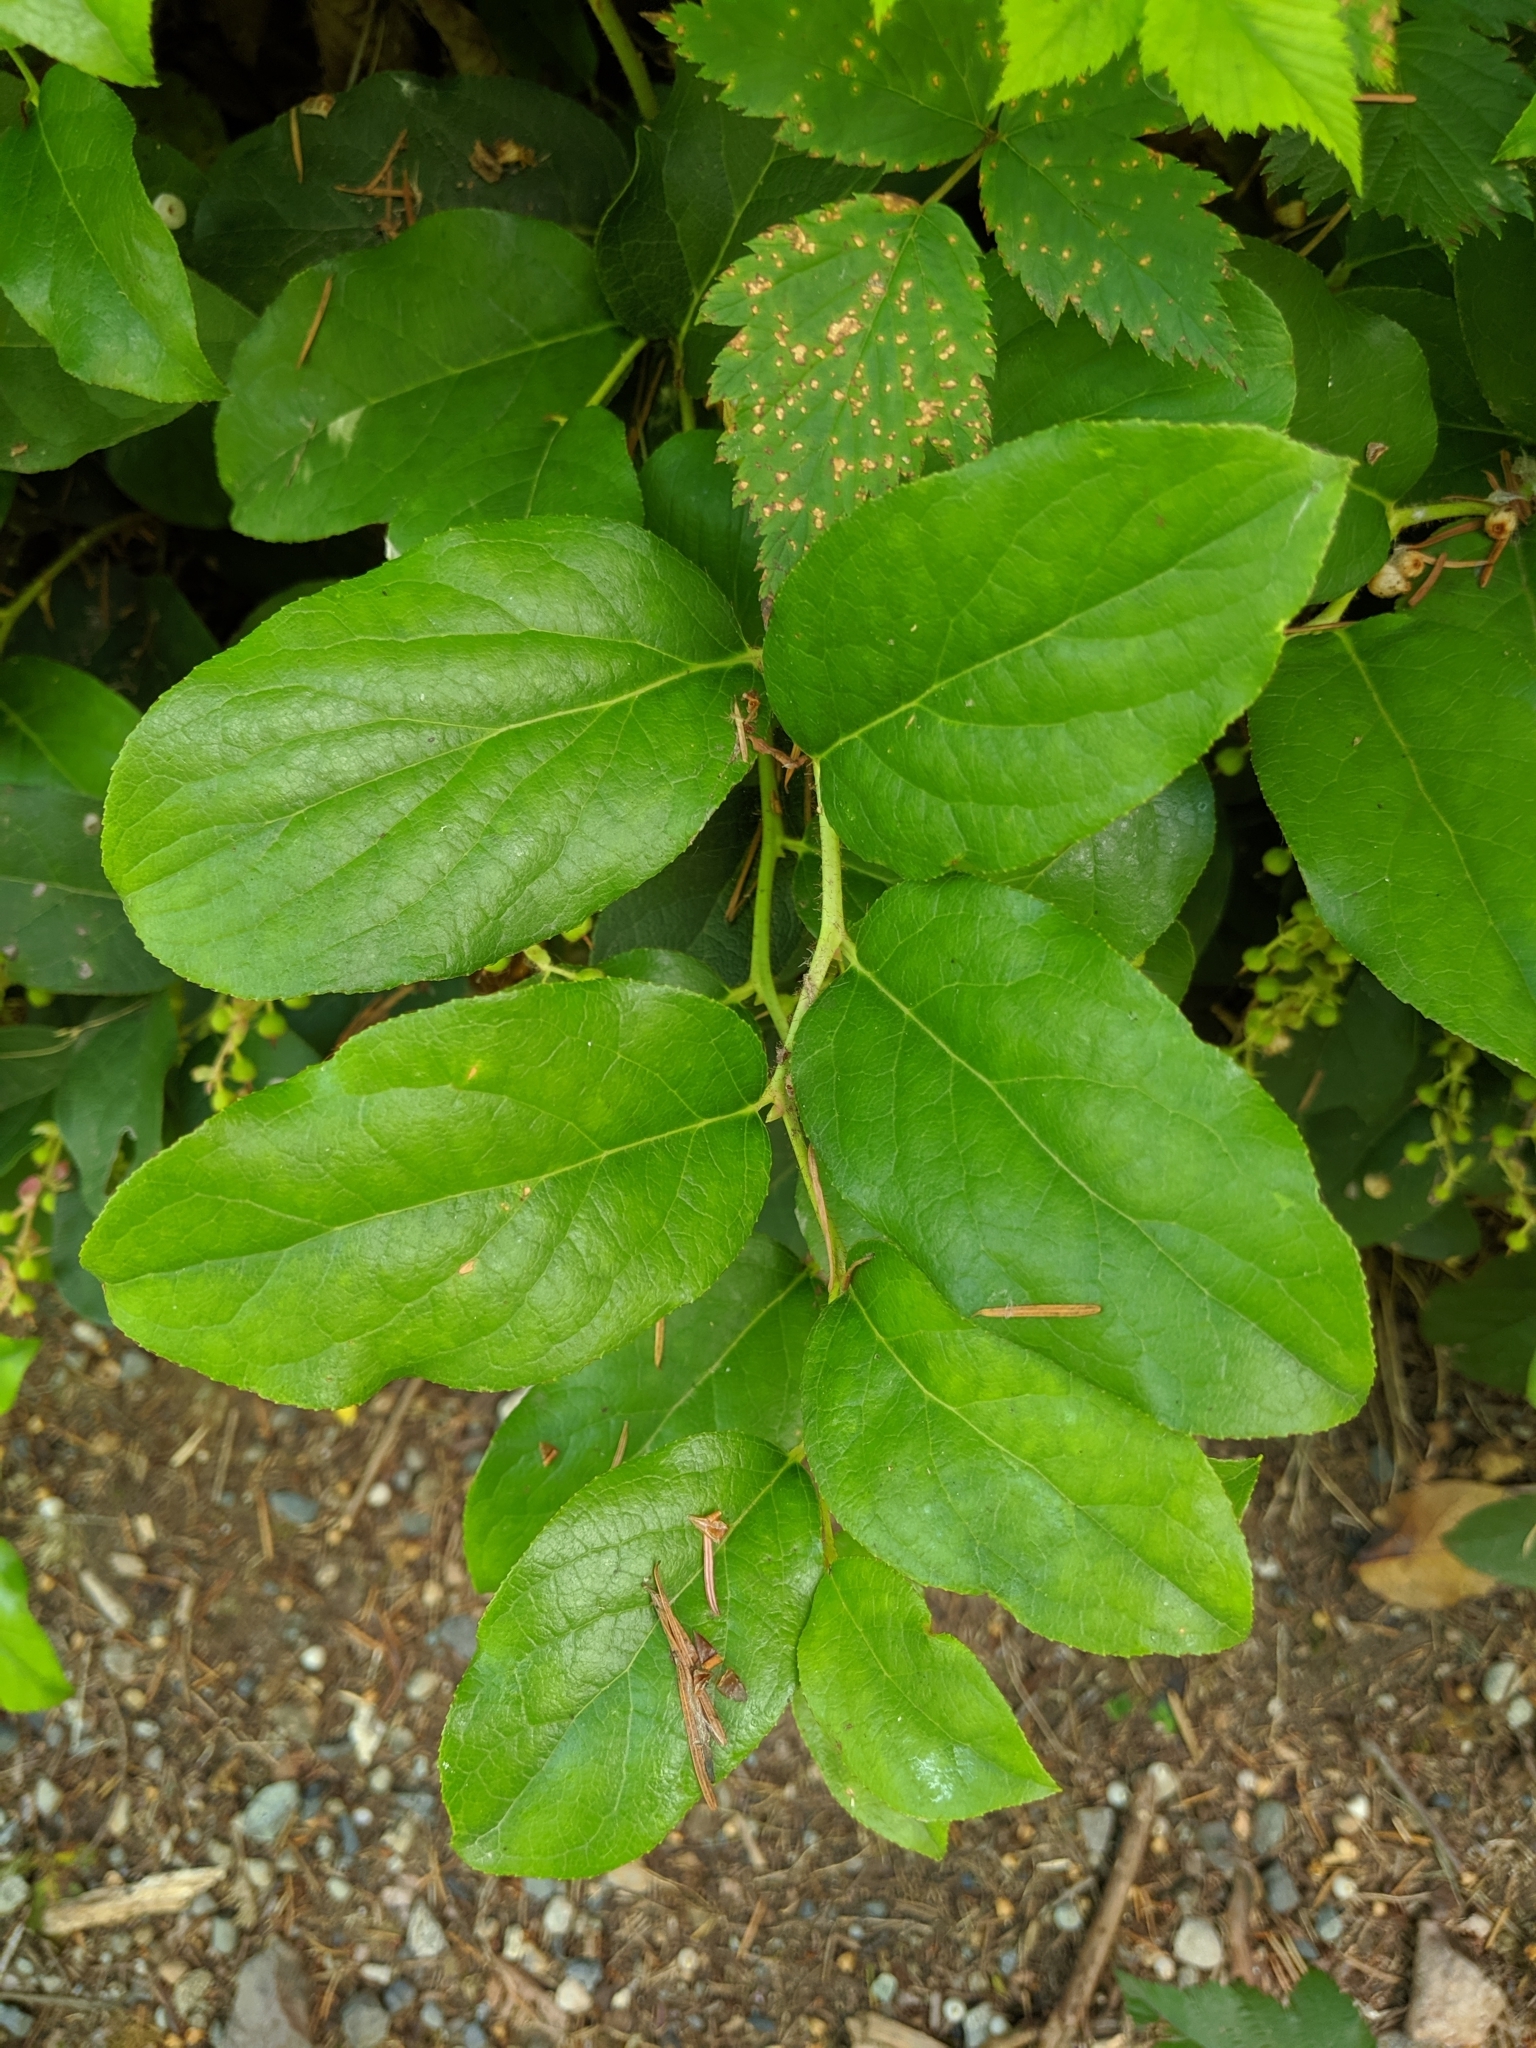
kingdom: Plantae
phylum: Tracheophyta
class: Magnoliopsida
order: Ericales
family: Ericaceae
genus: Gaultheria
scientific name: Gaultheria shallon
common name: Shallon
